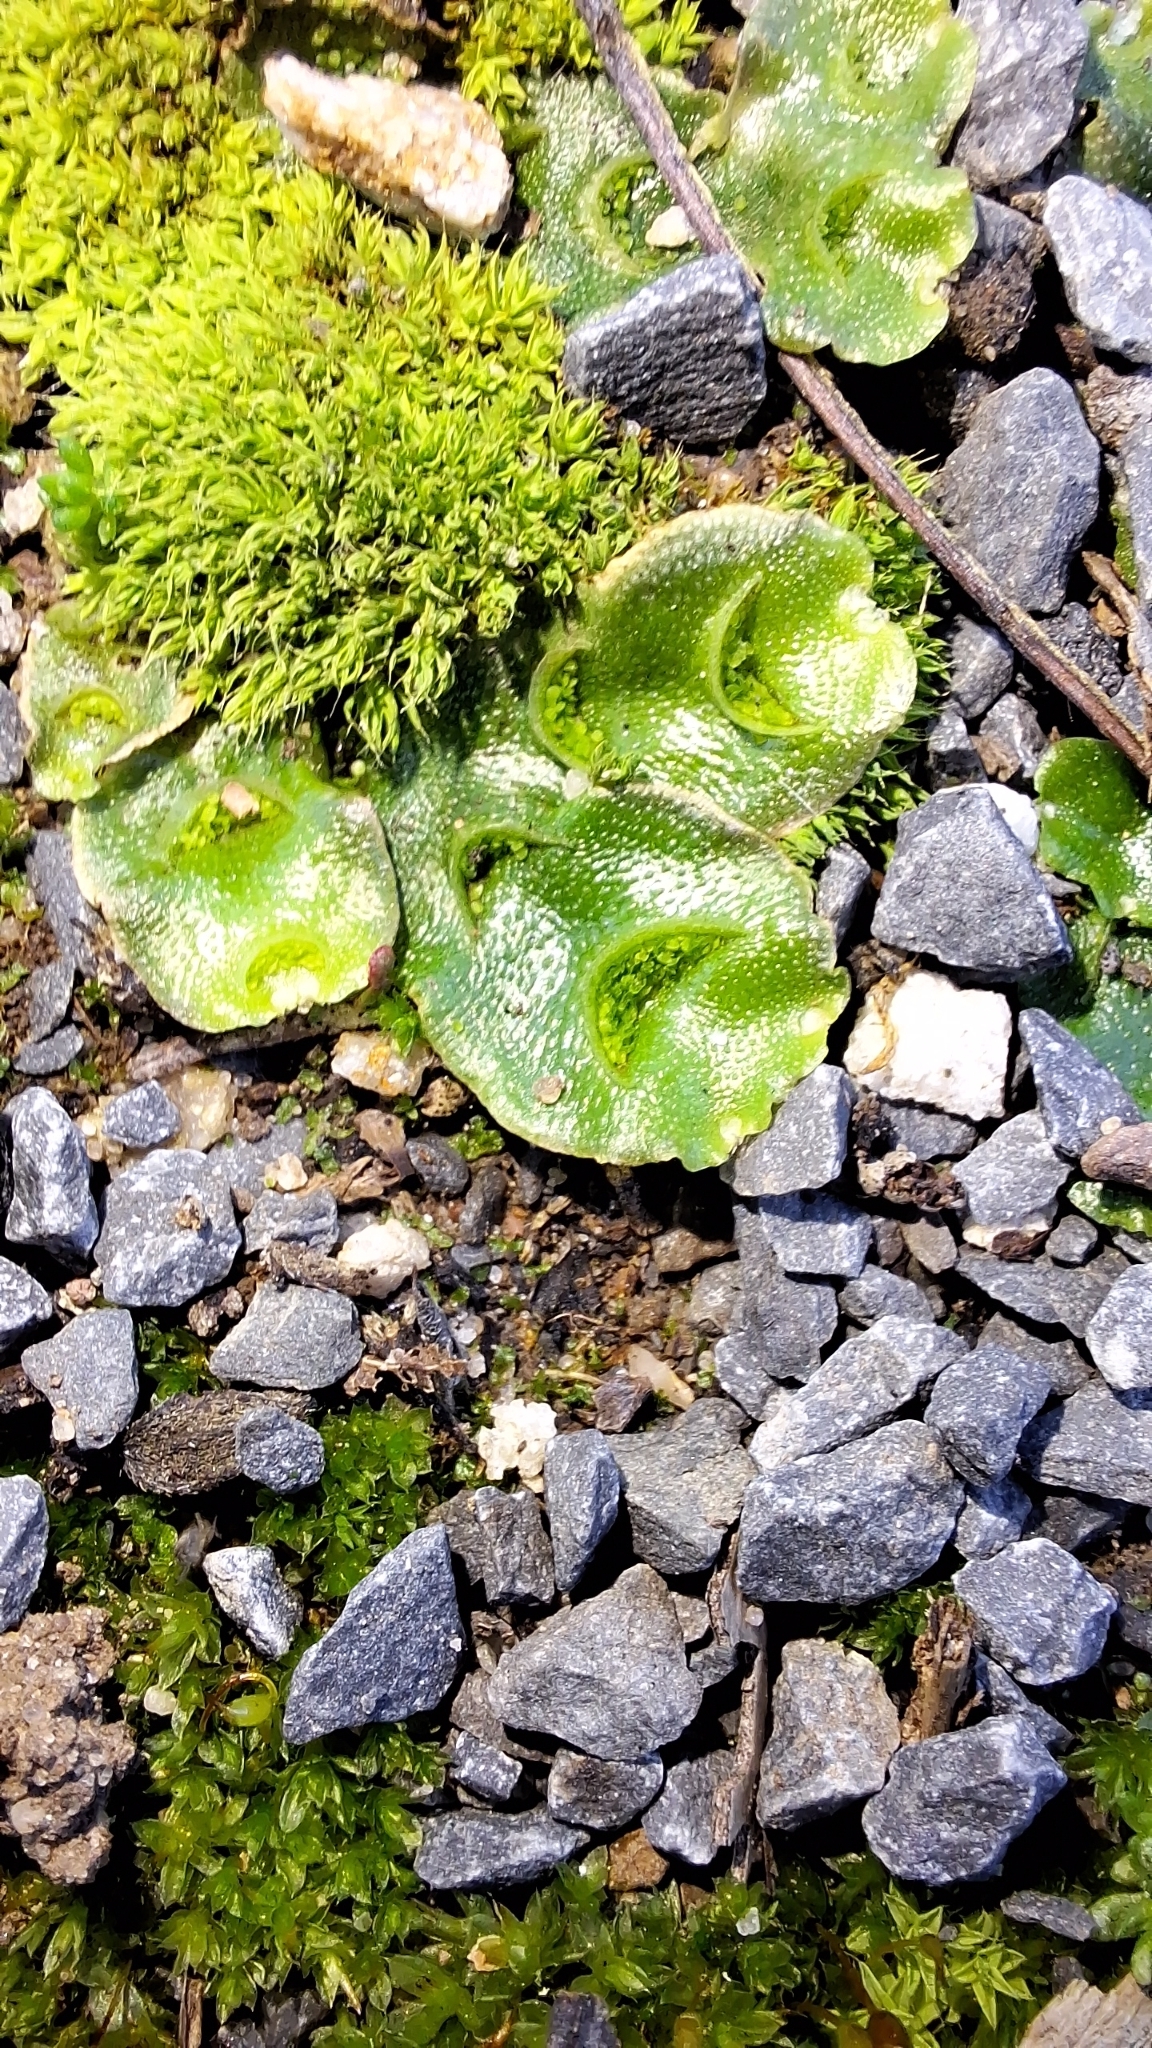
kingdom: Plantae
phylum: Marchantiophyta
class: Marchantiopsida
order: Lunulariales
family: Lunulariaceae
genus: Lunularia
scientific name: Lunularia cruciata
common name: Crescent-cup liverwort
